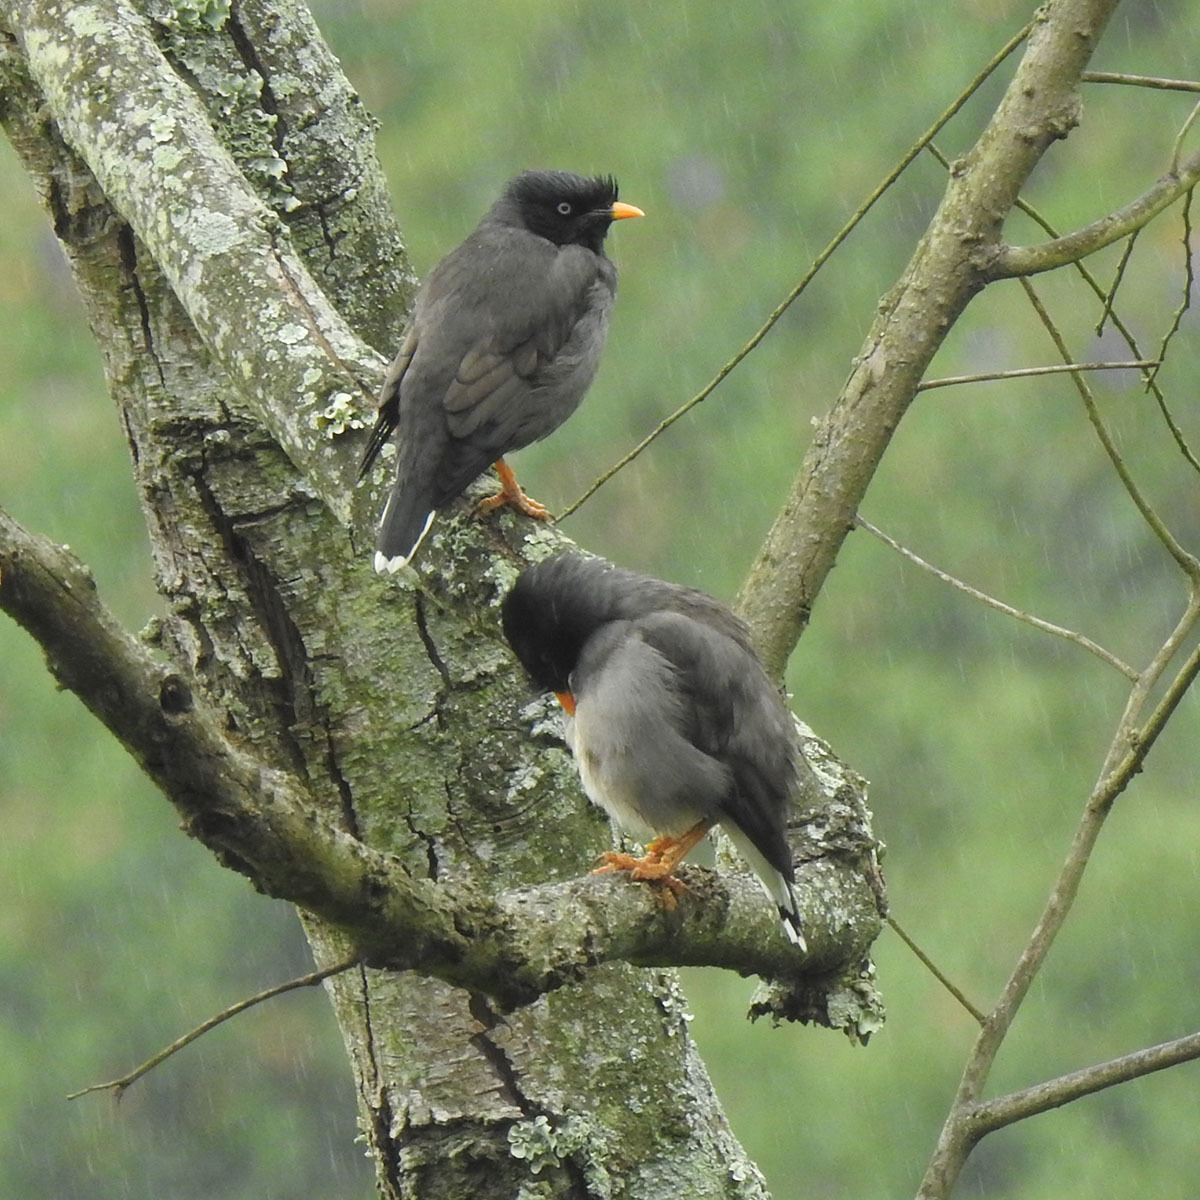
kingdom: Animalia
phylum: Chordata
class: Aves
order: Passeriformes
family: Sturnidae
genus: Acridotheres
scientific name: Acridotheres fuscus
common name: Jungle myna
